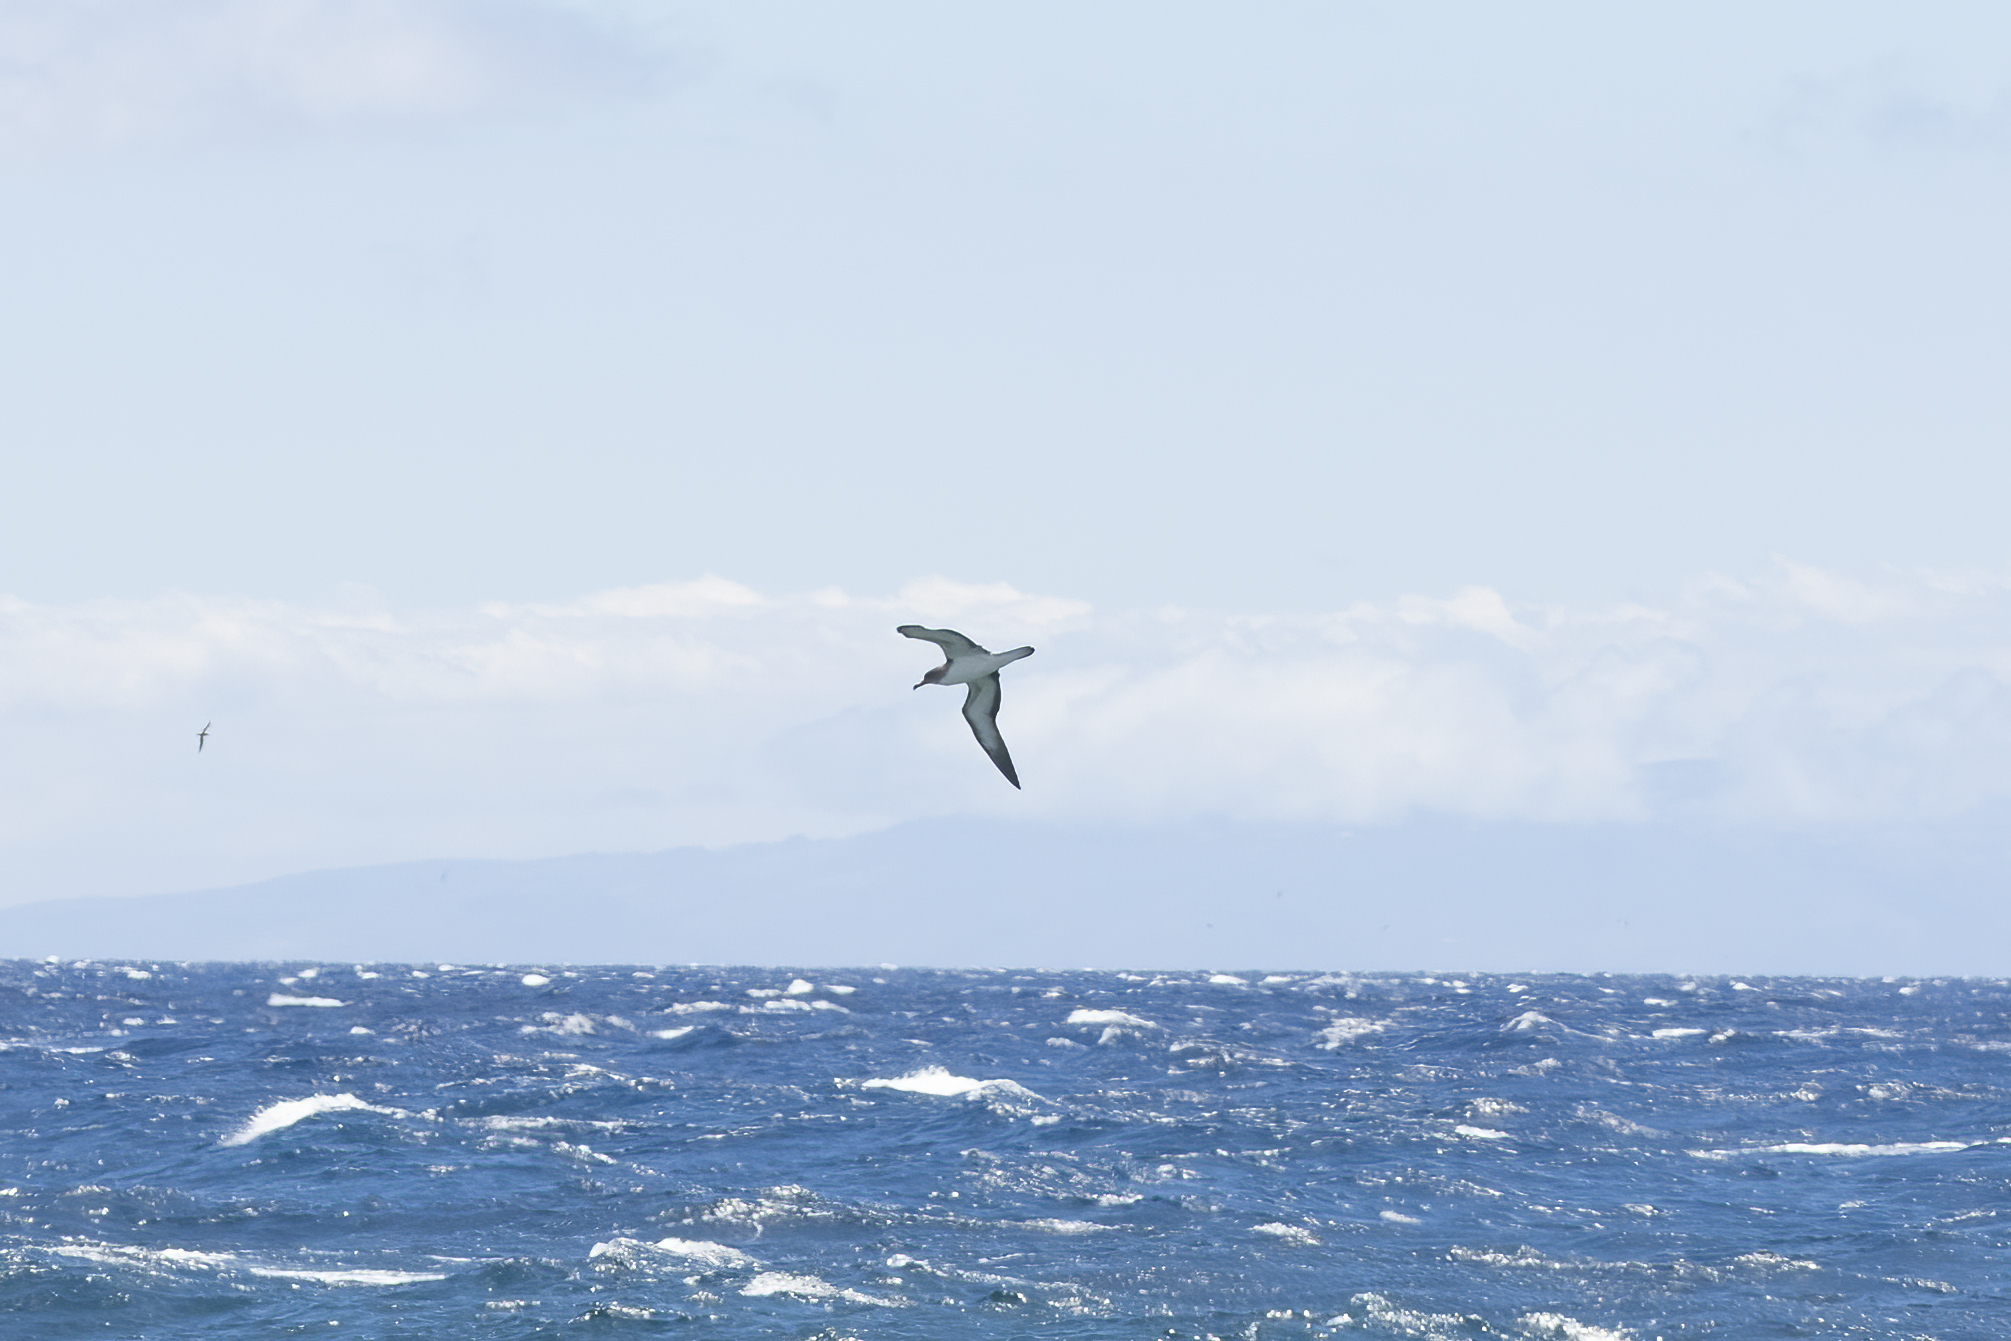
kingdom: Animalia
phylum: Chordata
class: Aves
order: Procellariiformes
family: Procellariidae
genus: Calonectris
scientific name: Calonectris diomedea
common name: Cory's shearwater
